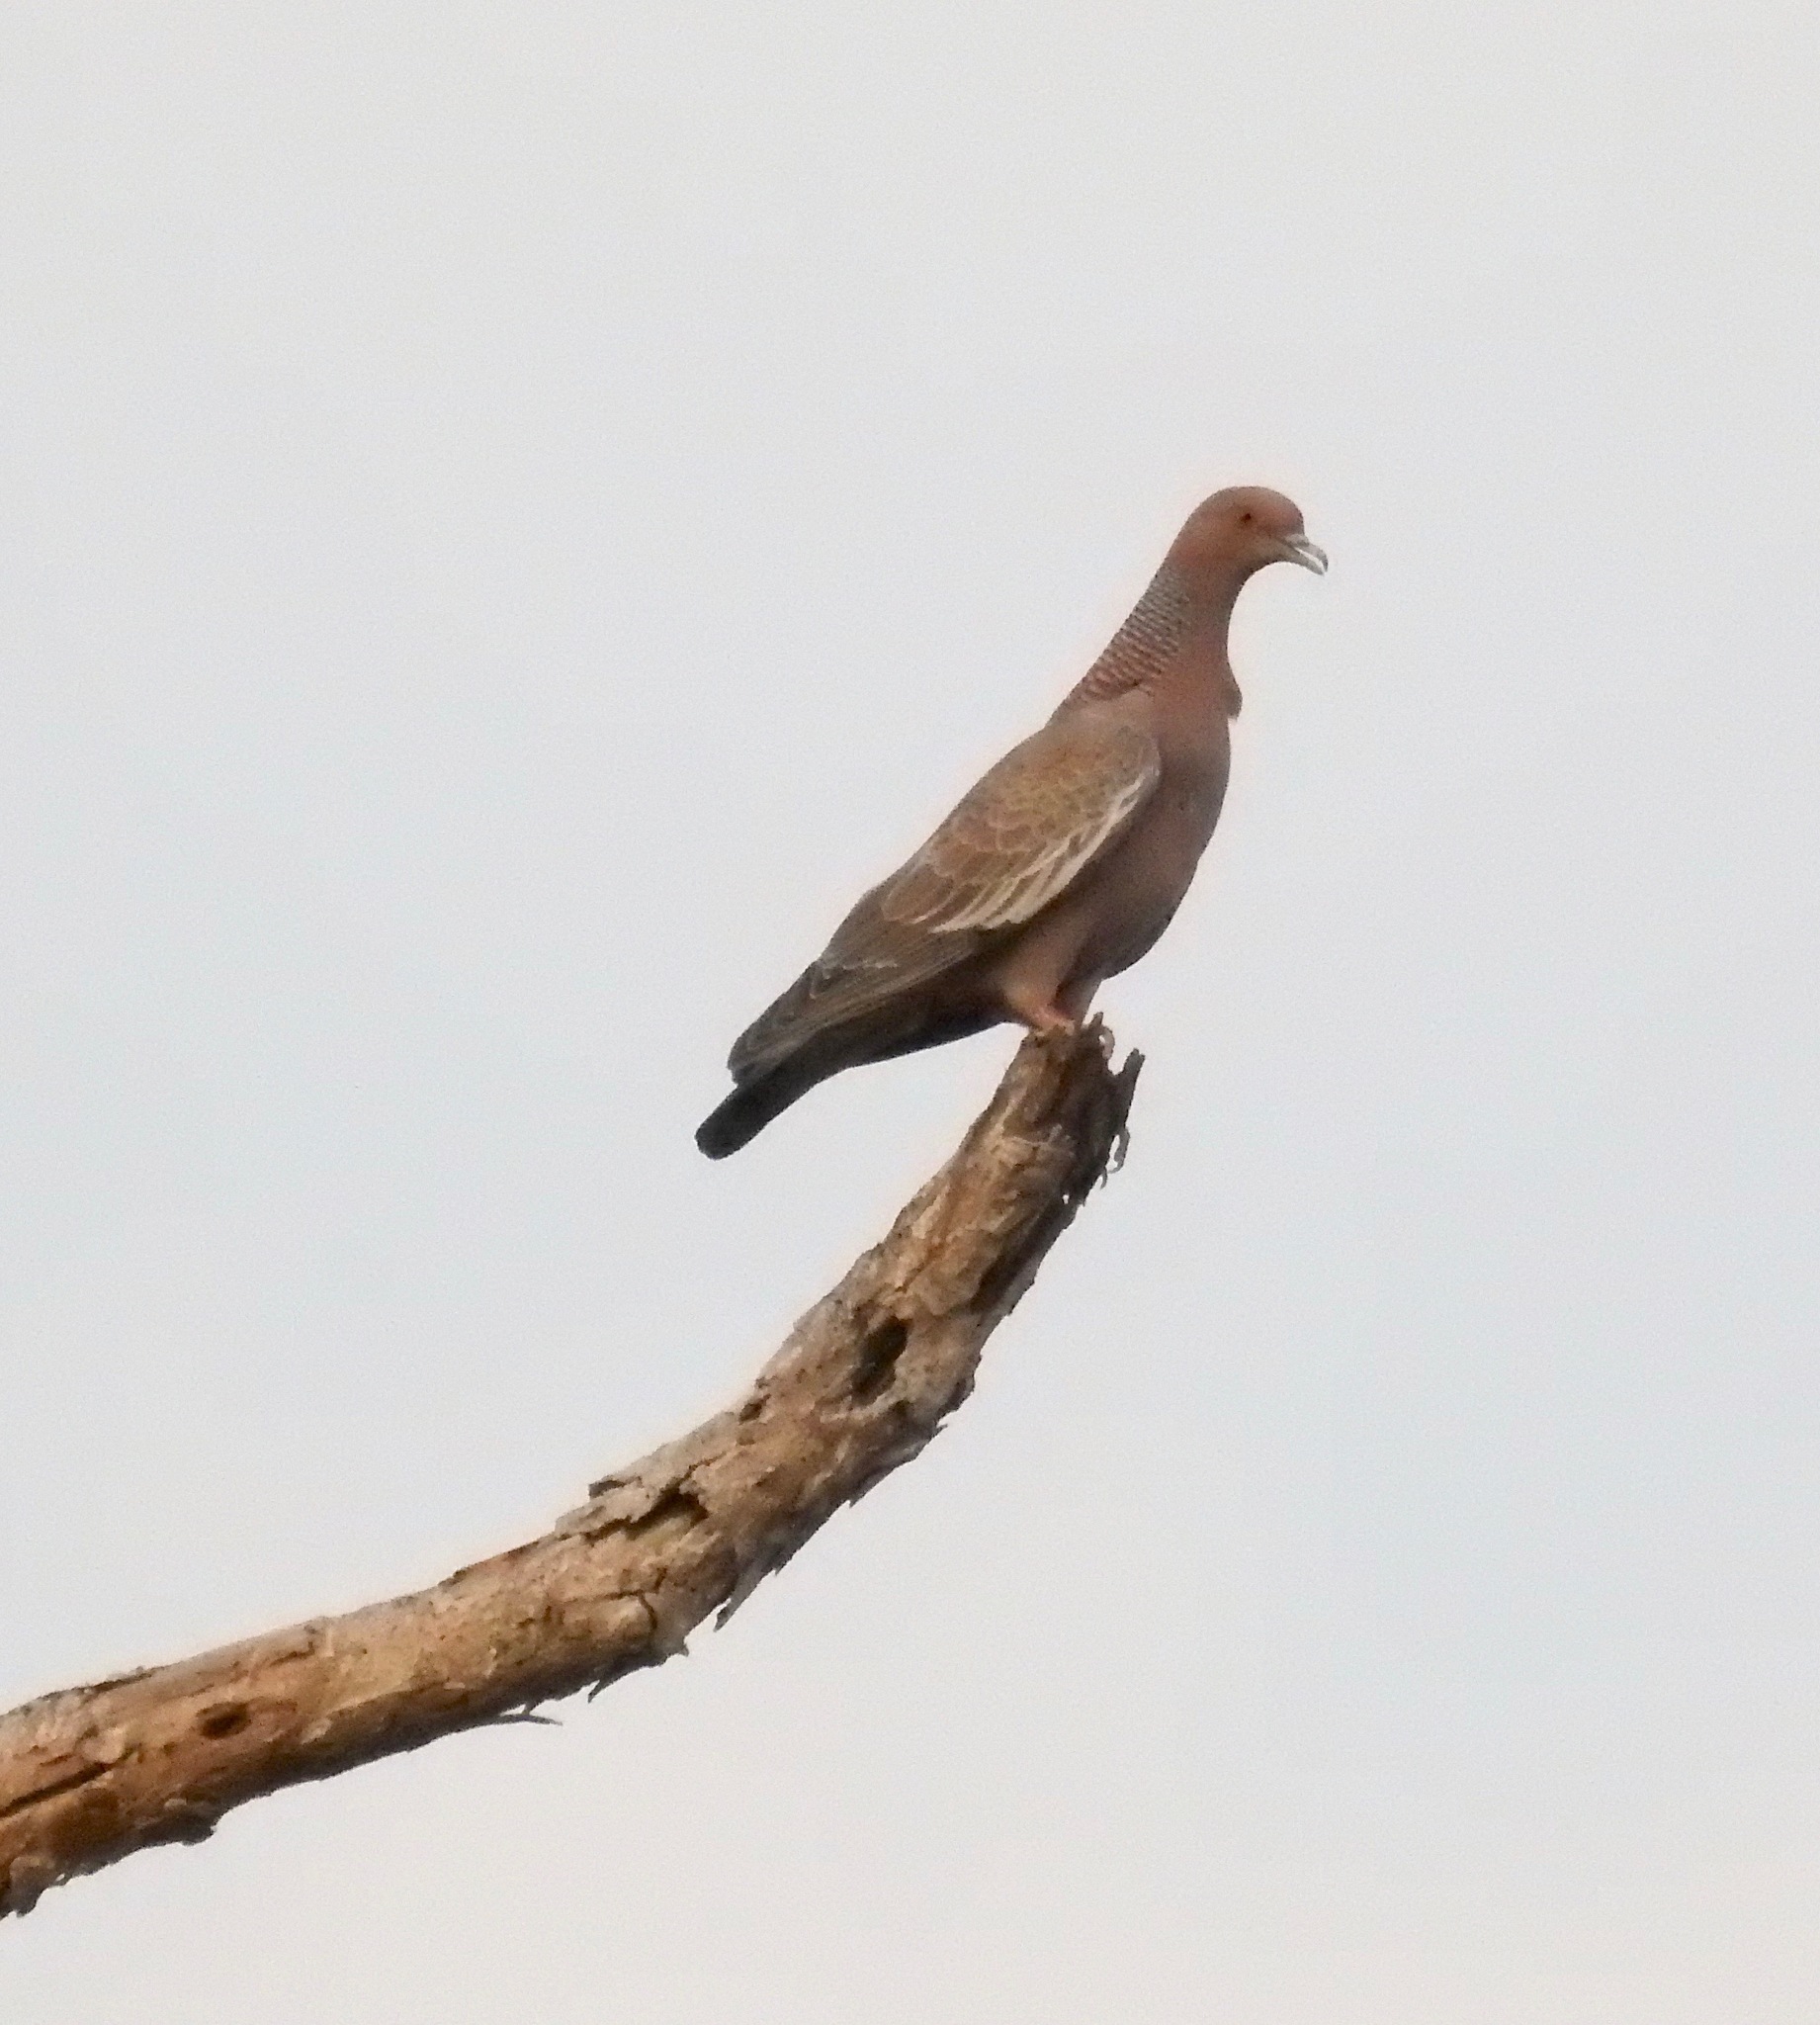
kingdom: Animalia
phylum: Chordata
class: Aves
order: Columbiformes
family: Columbidae
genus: Patagioenas
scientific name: Patagioenas picazuro
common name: Picazuro pigeon
